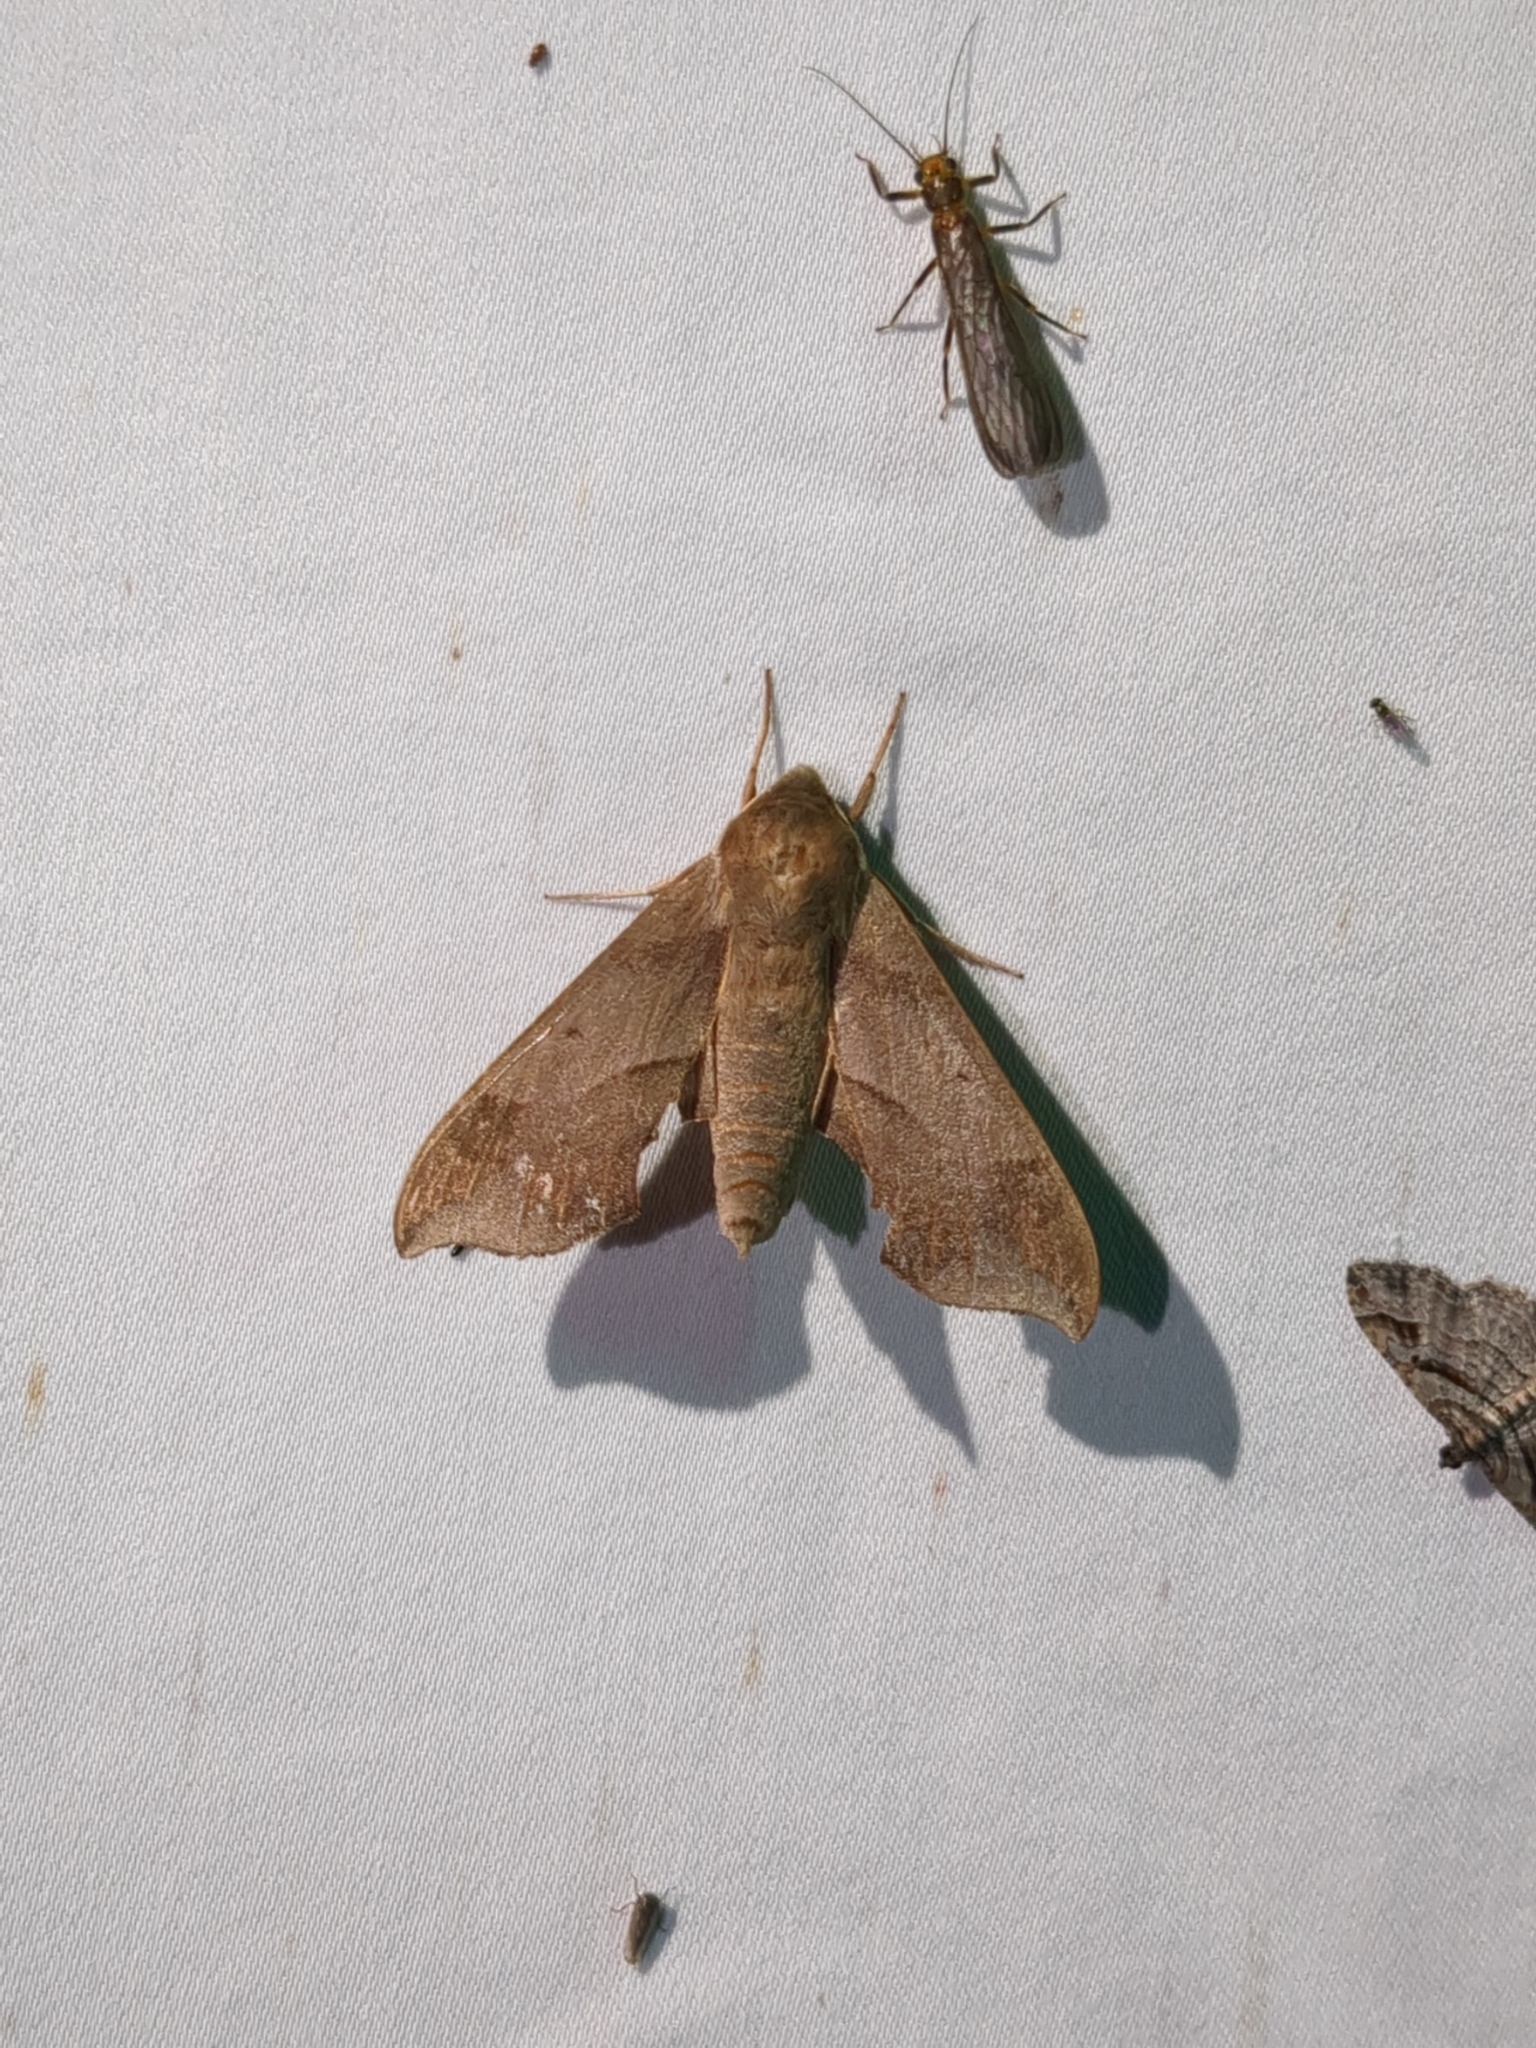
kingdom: Animalia
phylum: Arthropoda
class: Insecta
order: Lepidoptera
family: Sphingidae
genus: Darapsa
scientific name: Darapsa myron
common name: Hog sphinx
